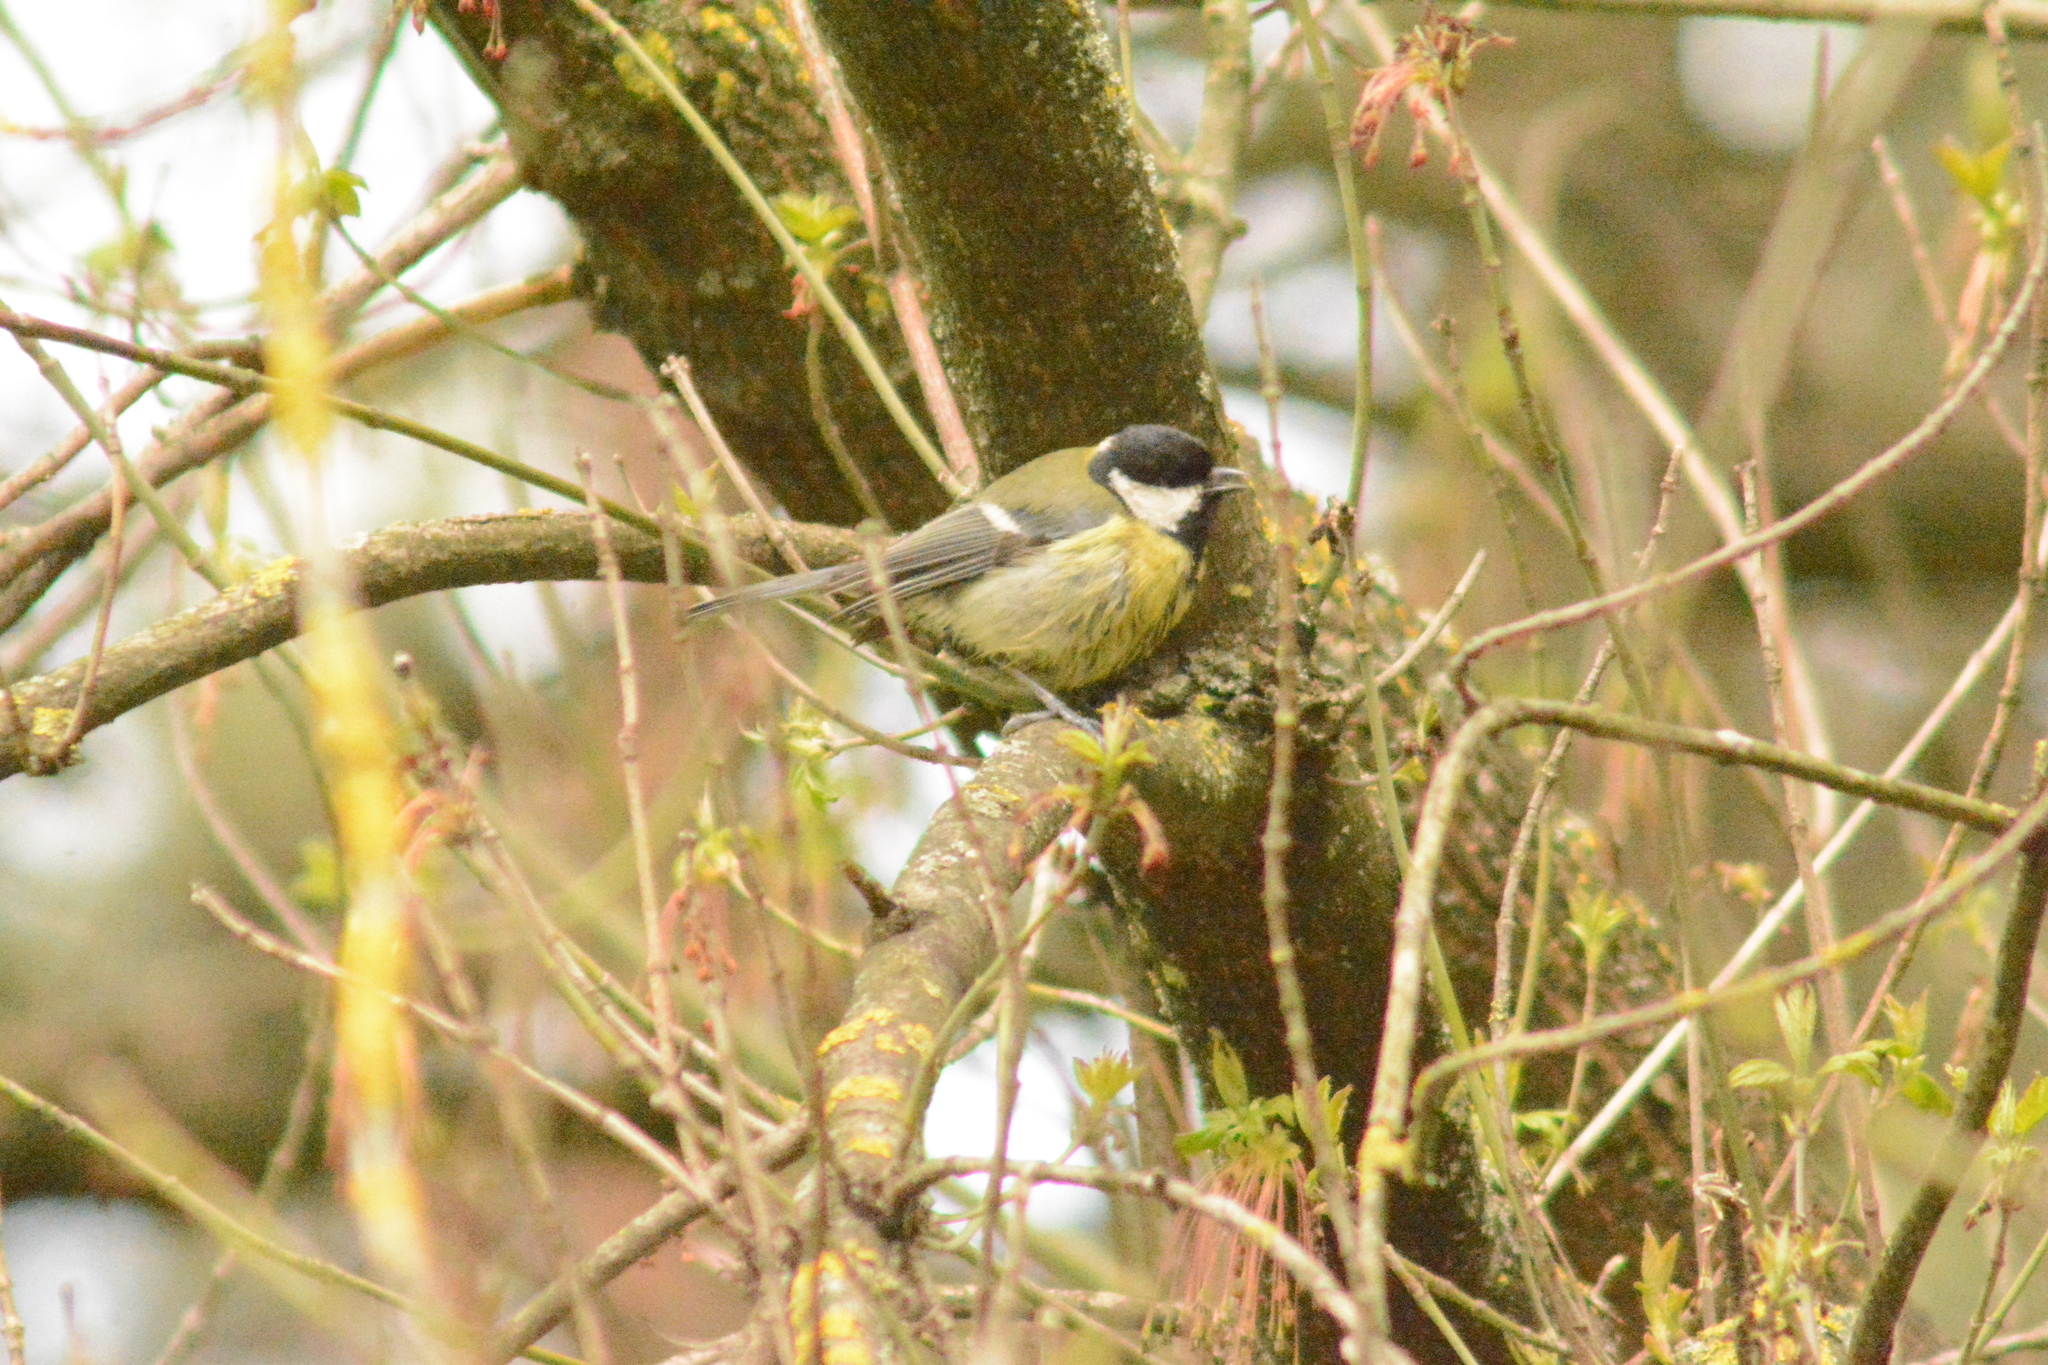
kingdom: Animalia
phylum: Chordata
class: Aves
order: Passeriformes
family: Paridae
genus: Parus
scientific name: Parus major
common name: Great tit
